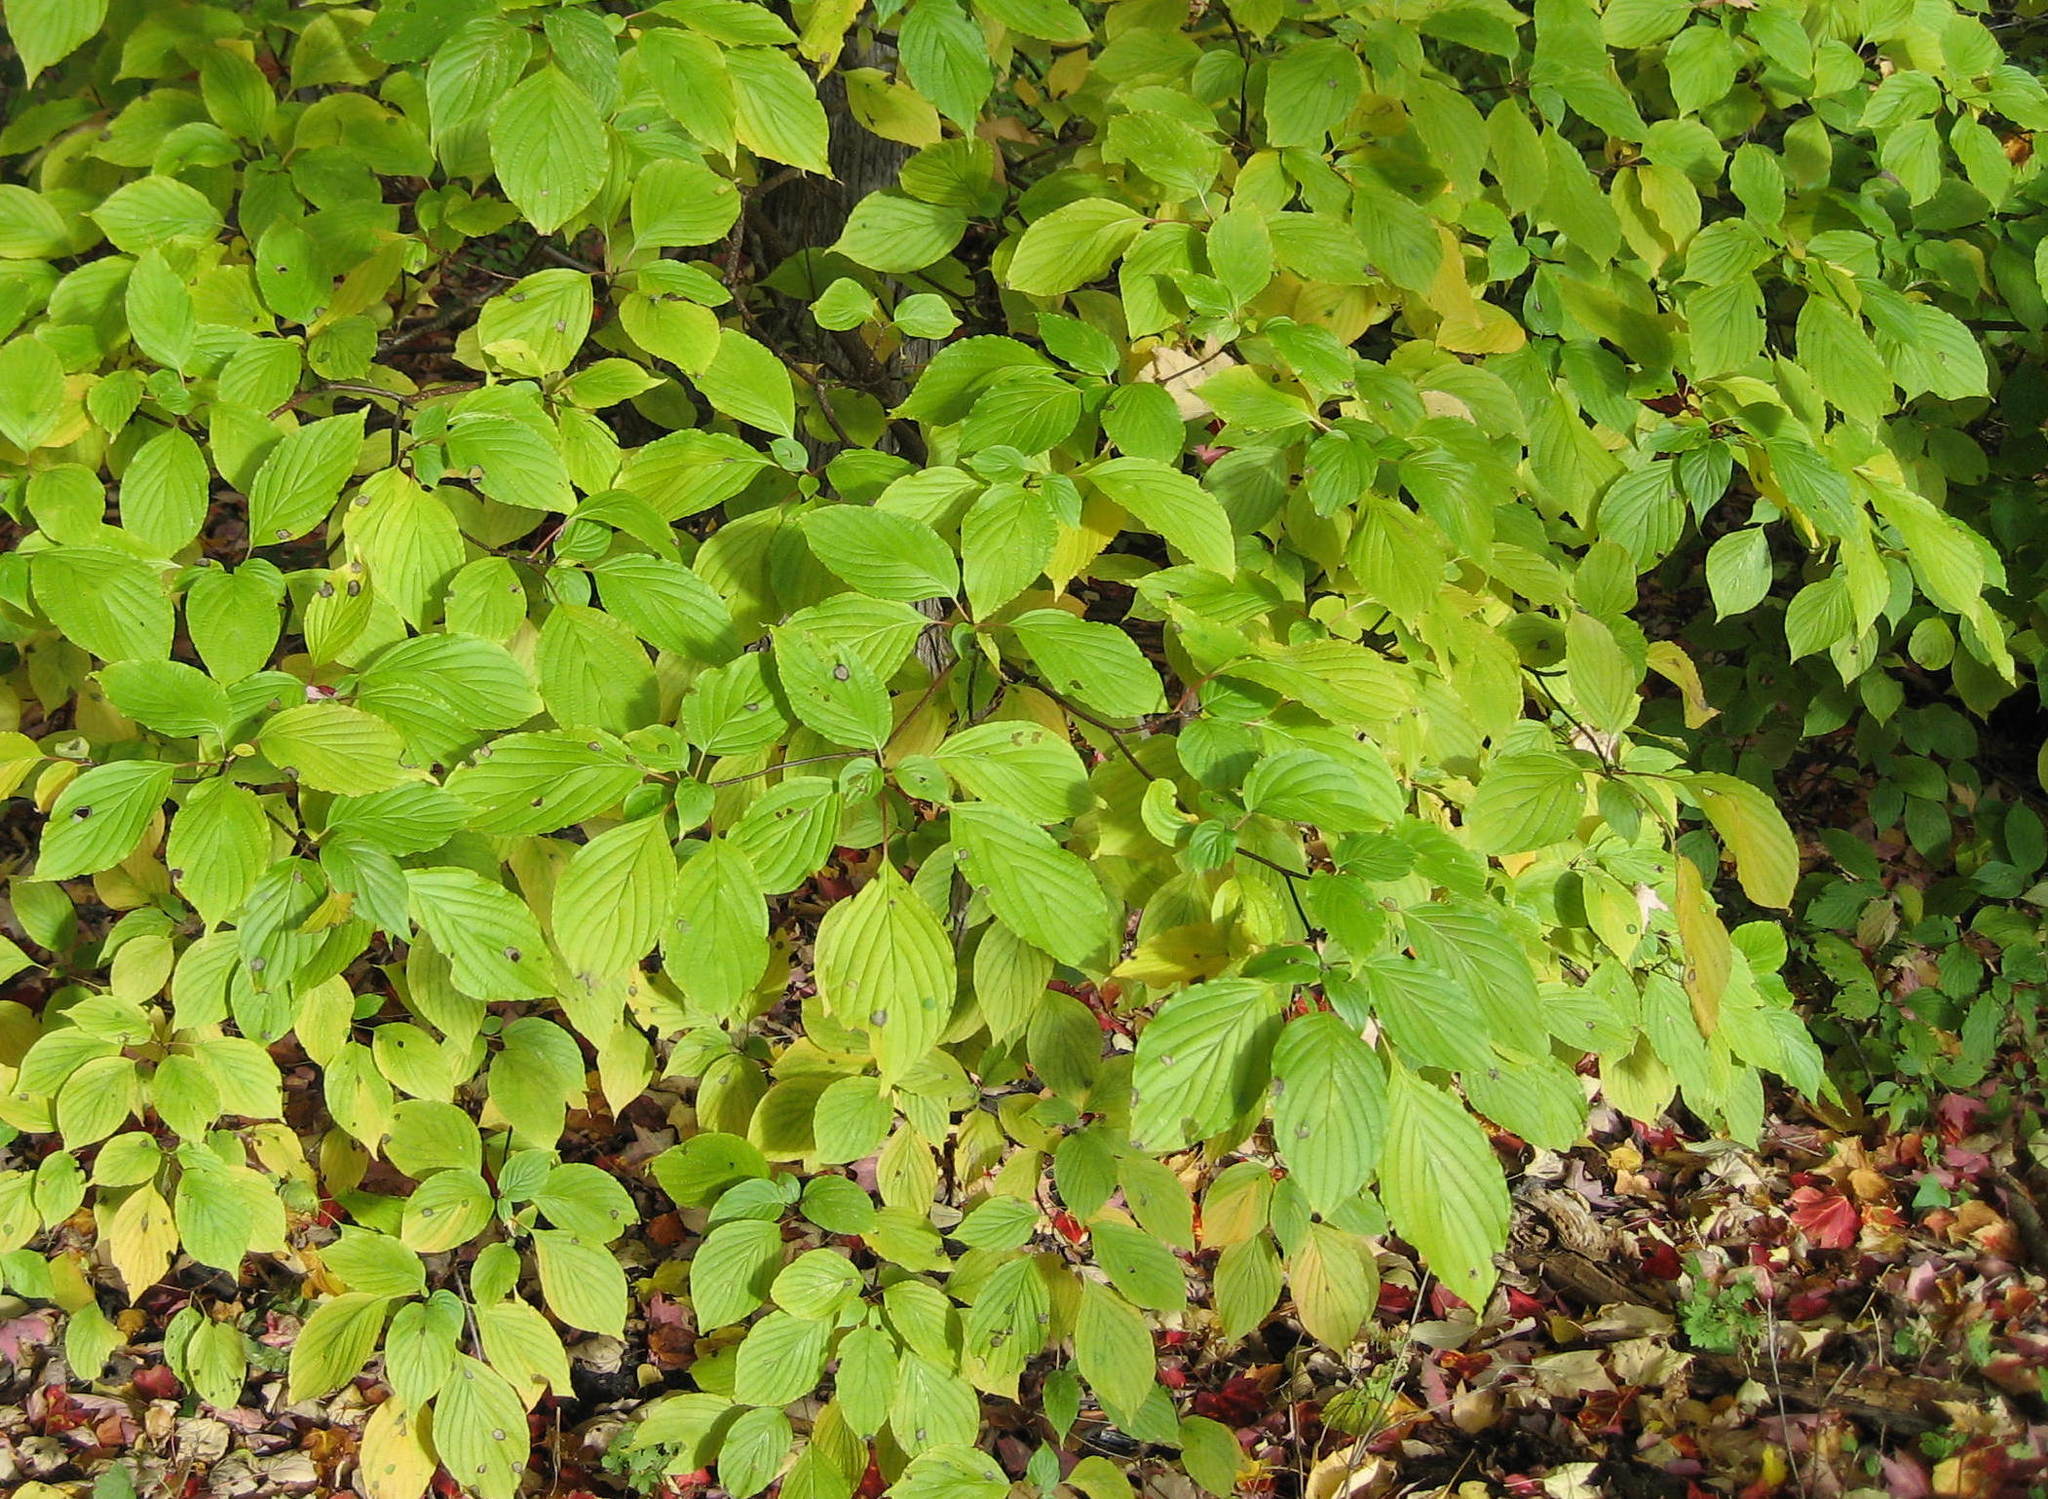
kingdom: Plantae
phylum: Tracheophyta
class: Magnoliopsida
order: Cornales
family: Cornaceae
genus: Cornus
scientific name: Cornus alternifolia
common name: Pagoda dogwood
